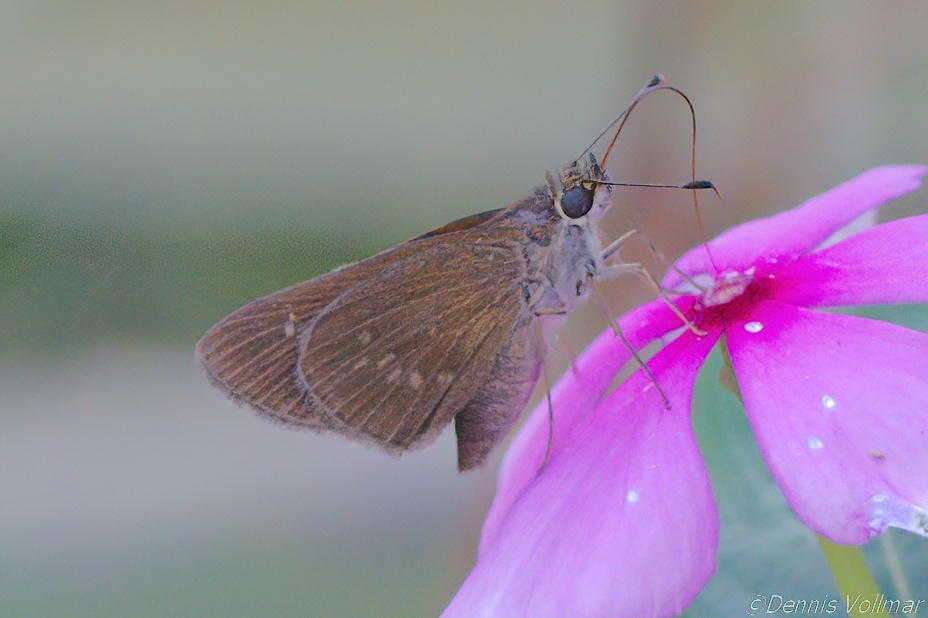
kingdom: Animalia
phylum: Arthropoda
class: Insecta
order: Lepidoptera
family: Hesperiidae
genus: Cymaenes
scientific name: Cymaenes tripunctus
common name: Dingy dotted skipper
